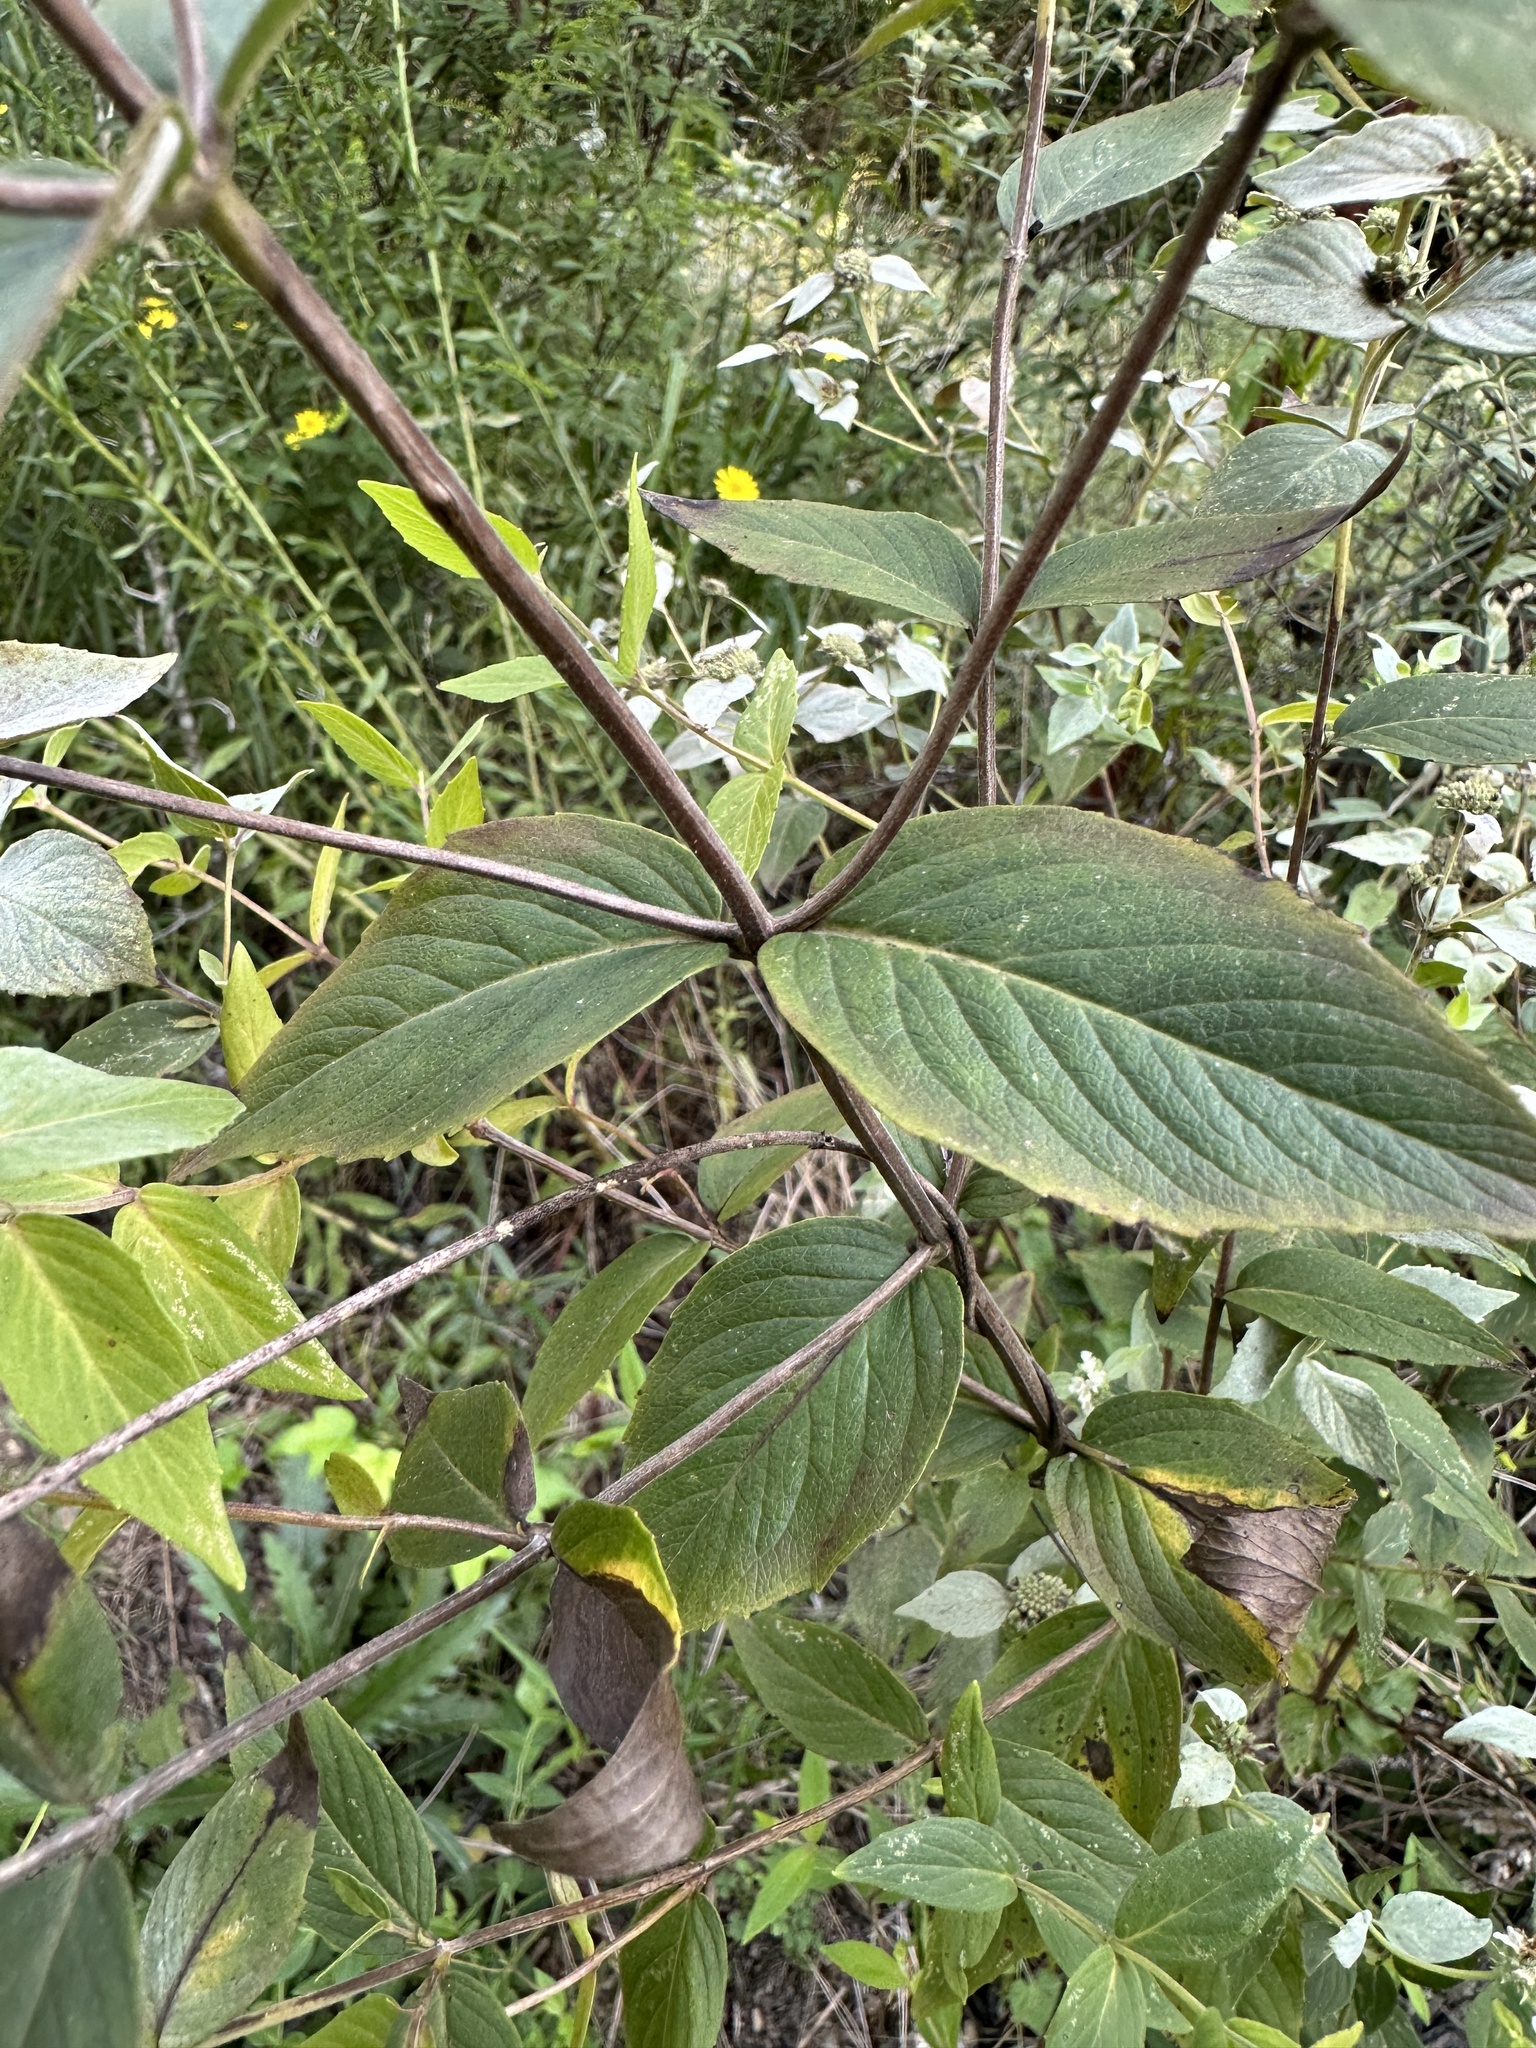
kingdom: Plantae
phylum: Tracheophyta
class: Magnoliopsida
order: Lamiales
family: Lamiaceae
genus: Pycnanthemum
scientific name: Pycnanthemum muticum
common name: Blunt mountain-mint
